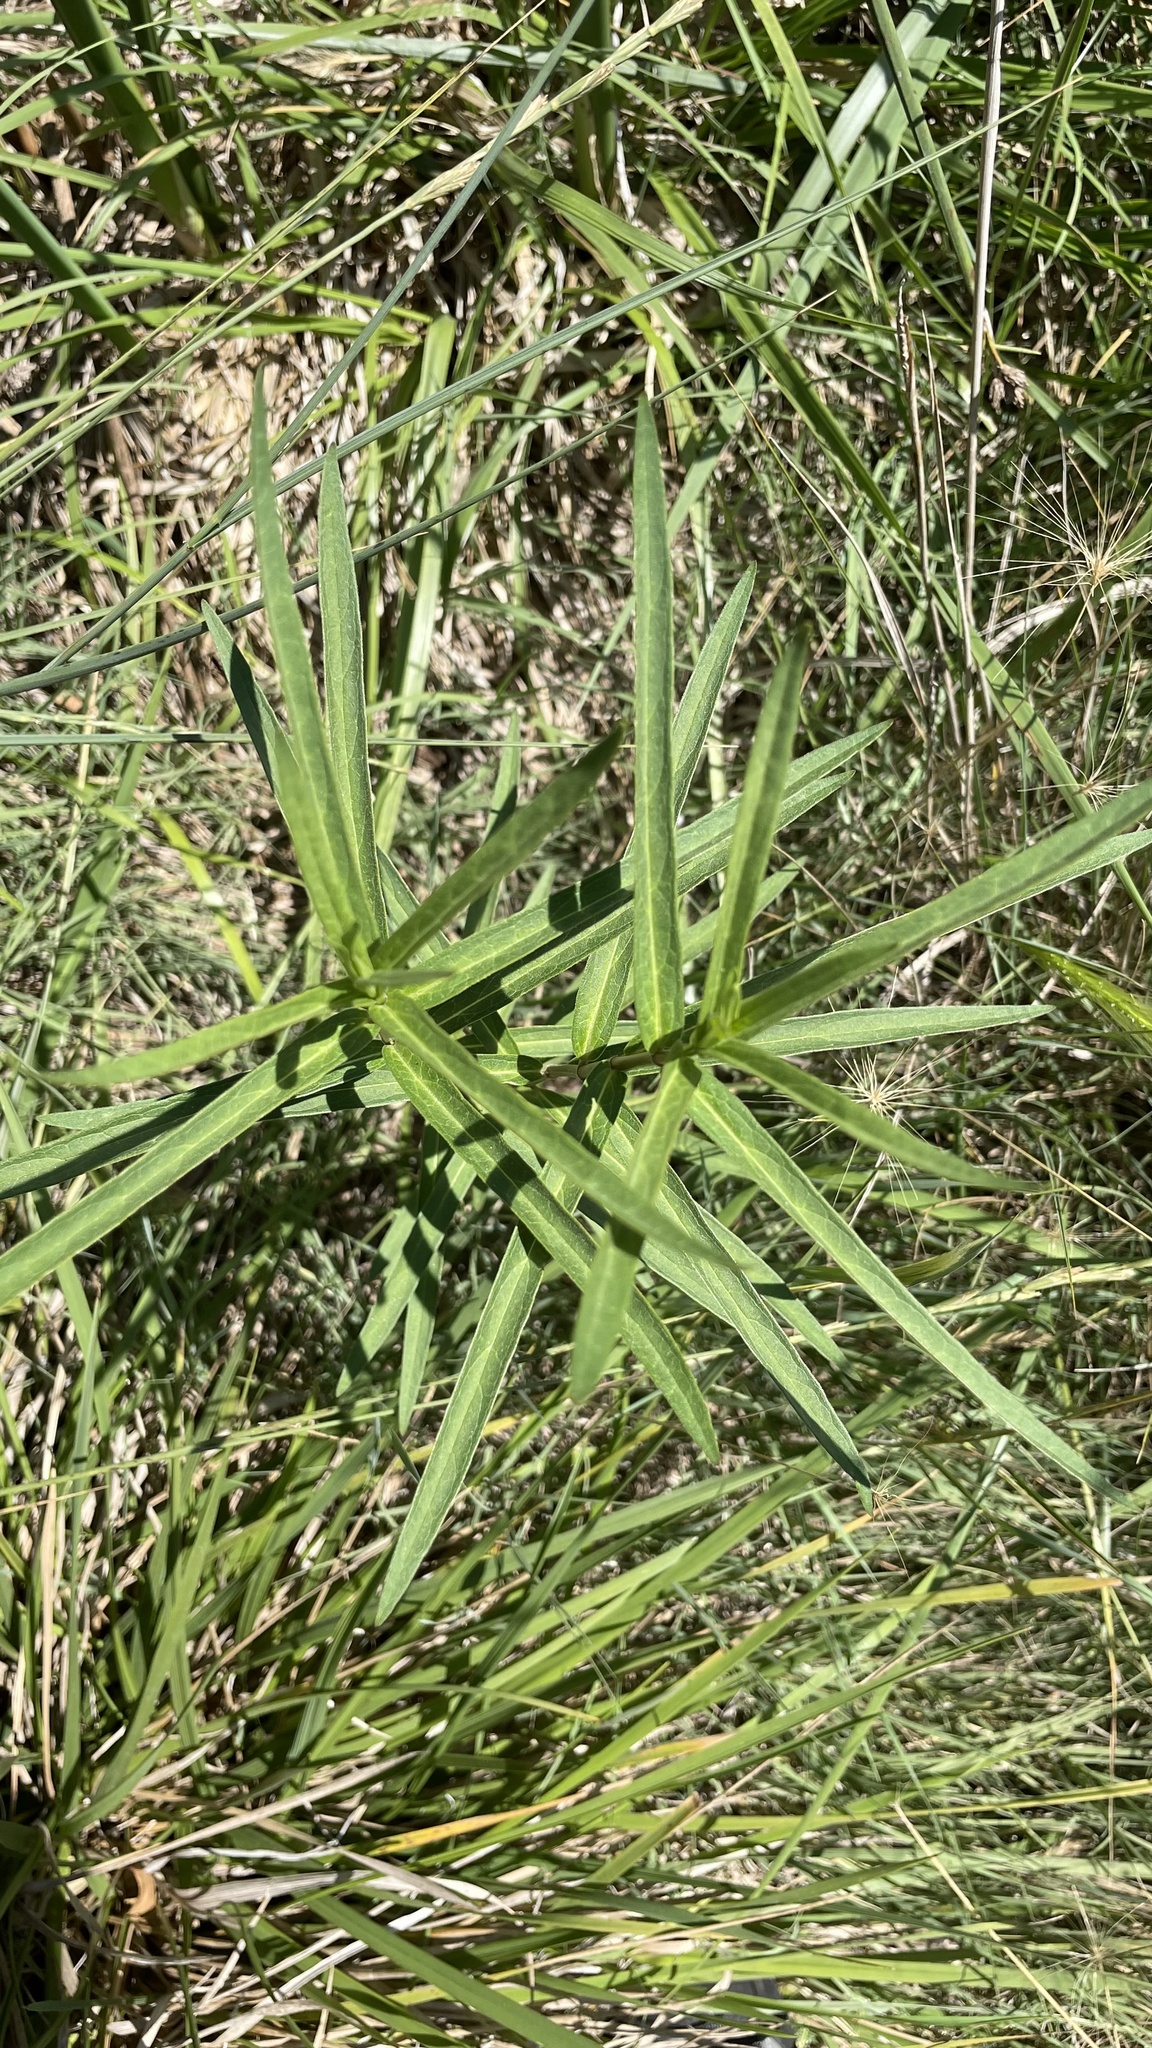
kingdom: Plantae
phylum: Tracheophyta
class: Magnoliopsida
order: Gentianales
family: Apocynaceae
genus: Asclepias
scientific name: Asclepias incarnata
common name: Swamp milkweed
